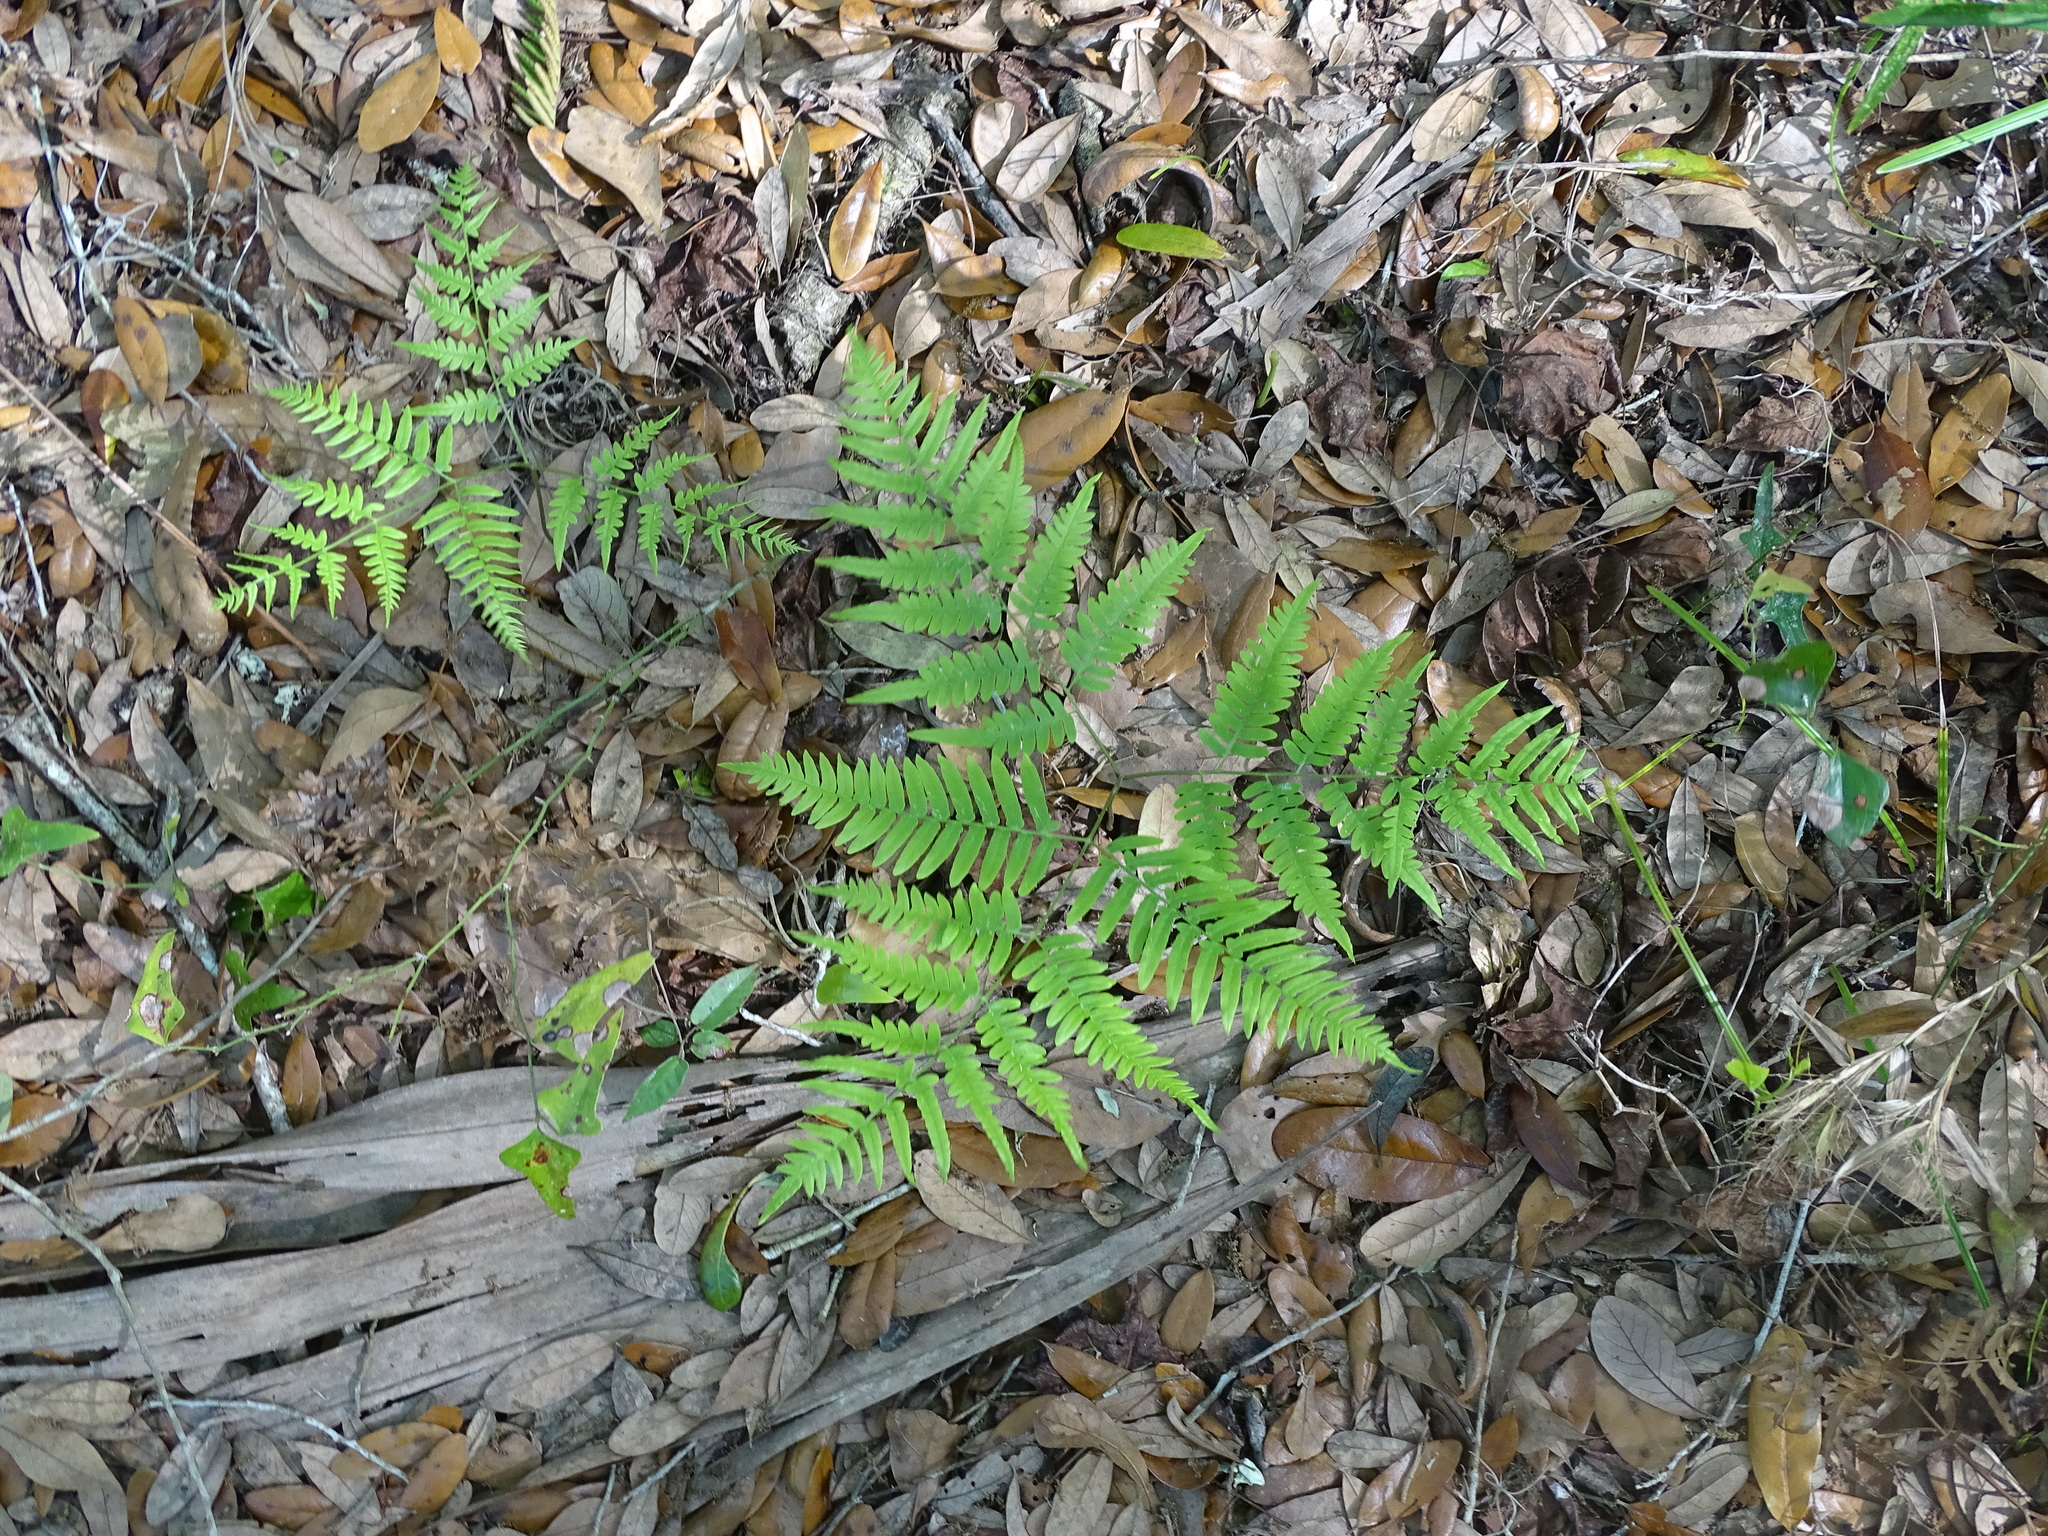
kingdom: Plantae
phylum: Tracheophyta
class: Polypodiopsida
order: Polypodiales
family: Dennstaedtiaceae
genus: Pteridium
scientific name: Pteridium
